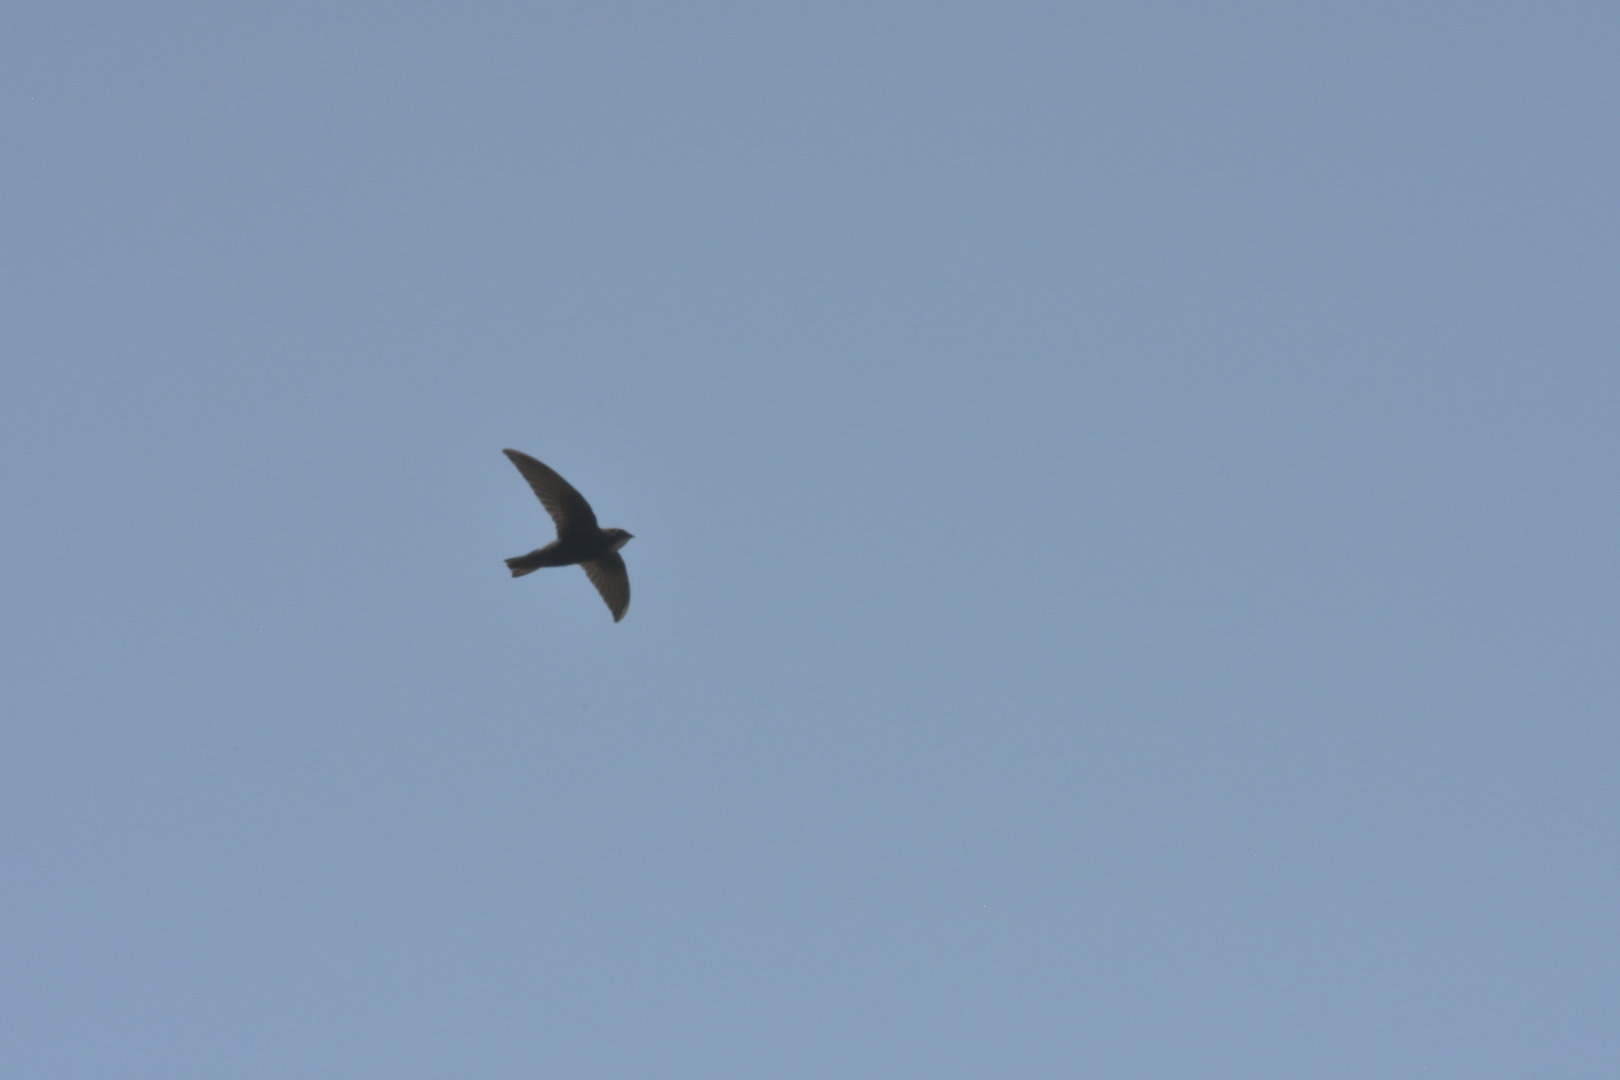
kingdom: Animalia
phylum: Chordata
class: Aves
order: Apodiformes
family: Apodidae
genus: Apus
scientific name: Apus affinis
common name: Little swift
